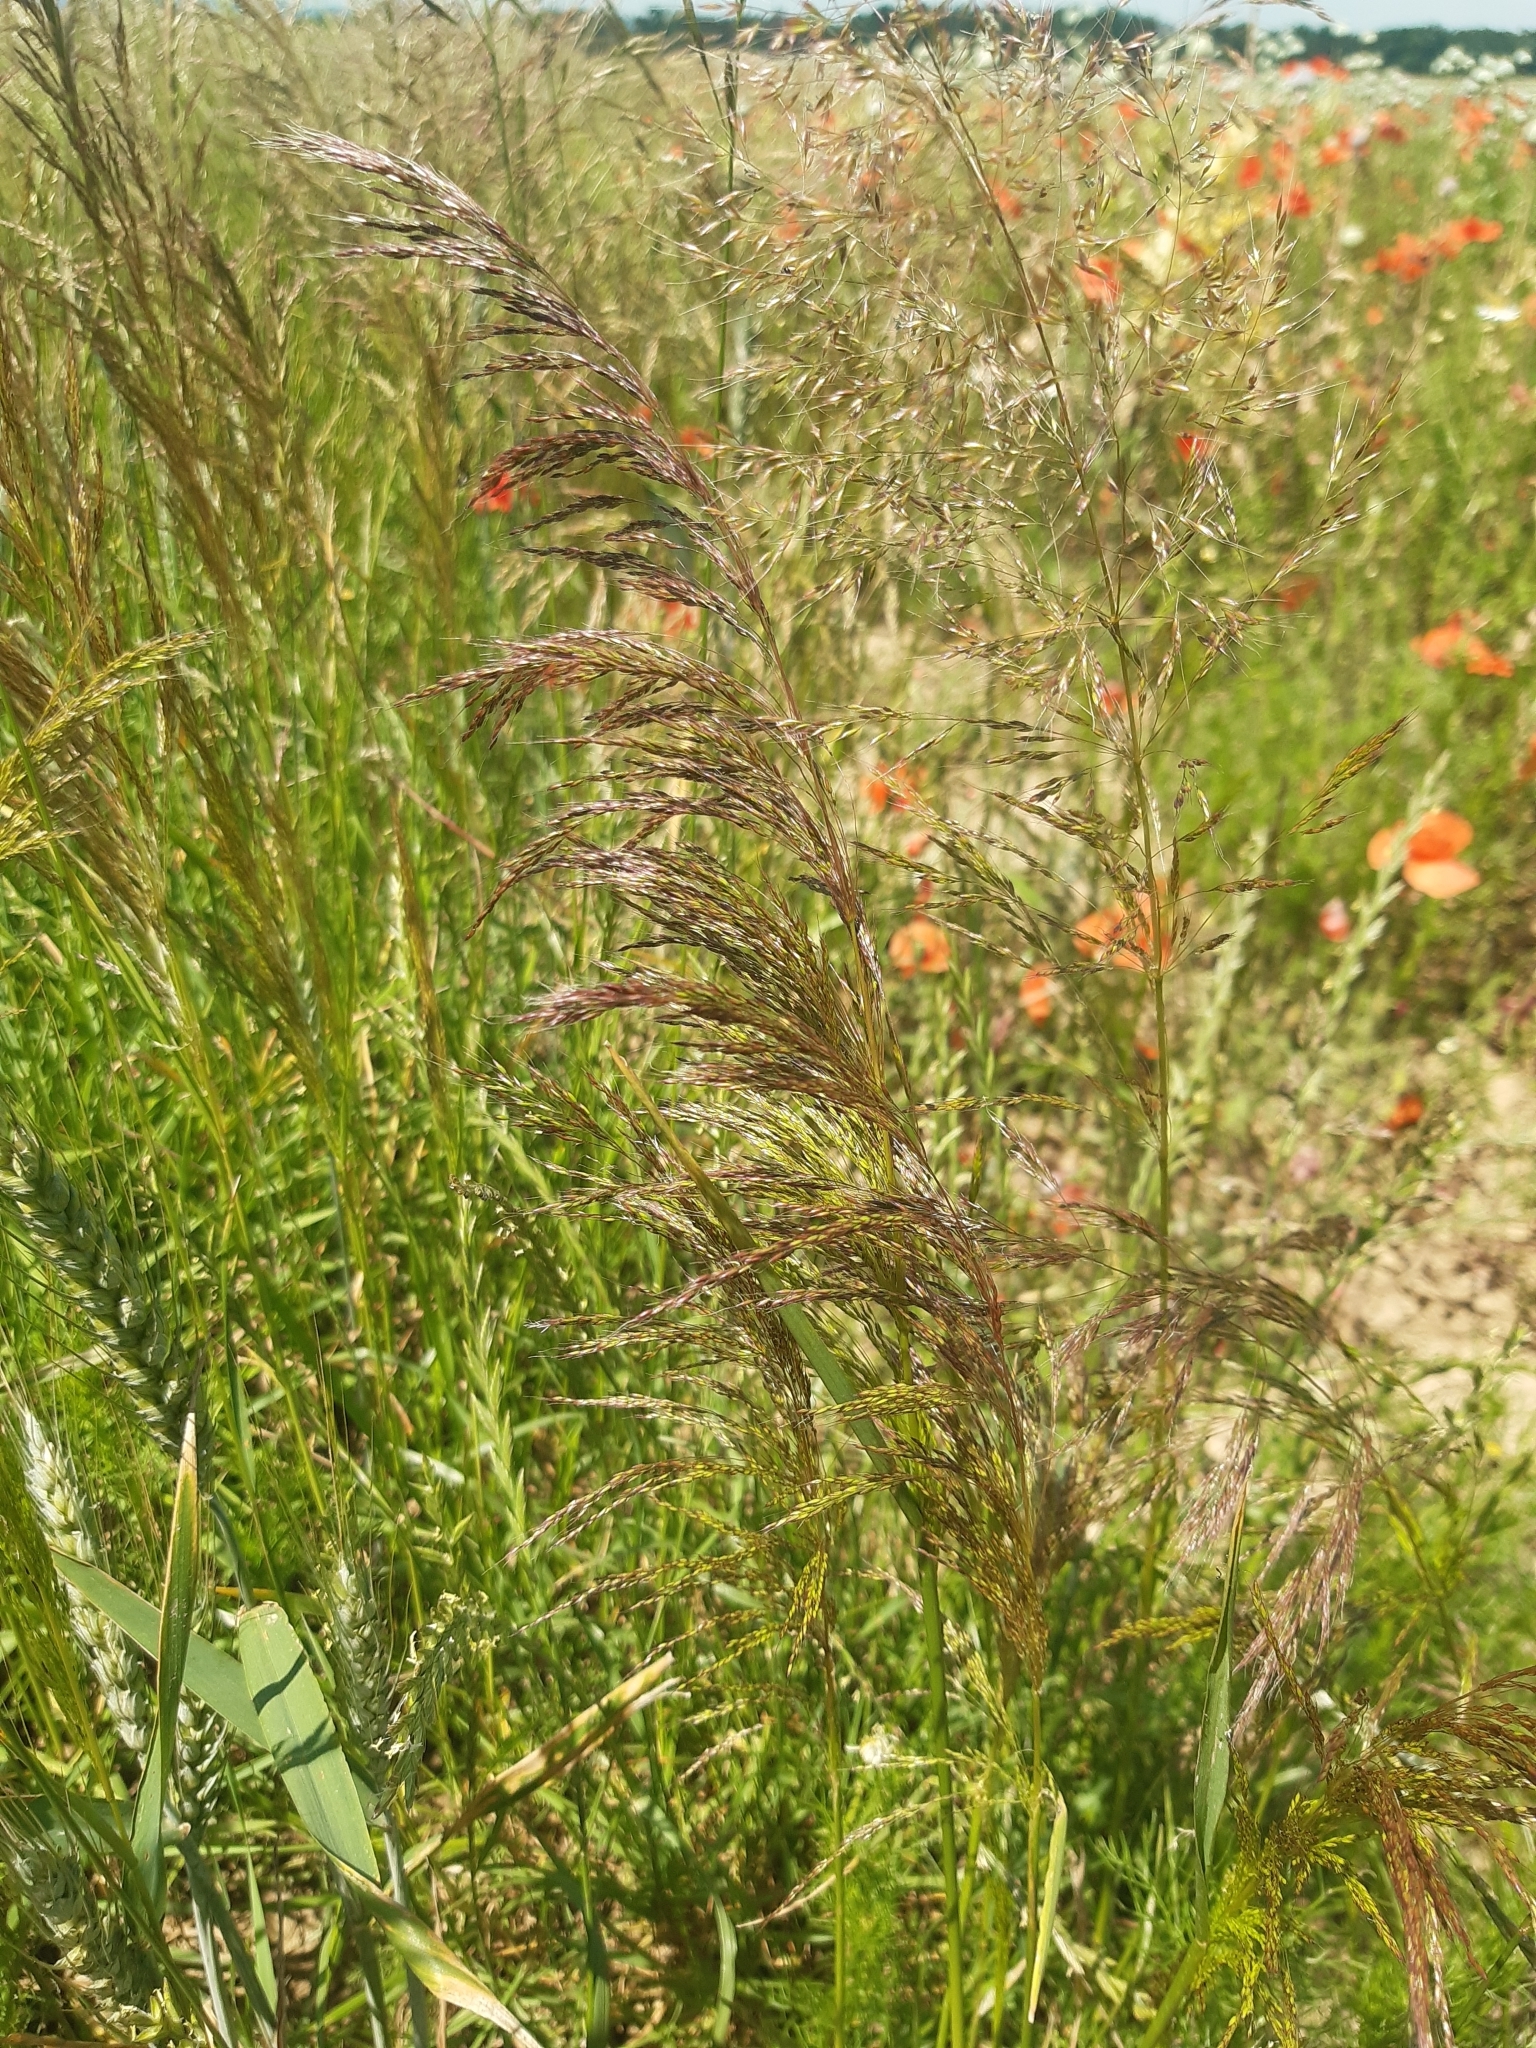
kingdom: Plantae
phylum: Tracheophyta
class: Liliopsida
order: Poales
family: Poaceae
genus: Apera
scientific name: Apera spica-venti
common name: Loose silky-bent
